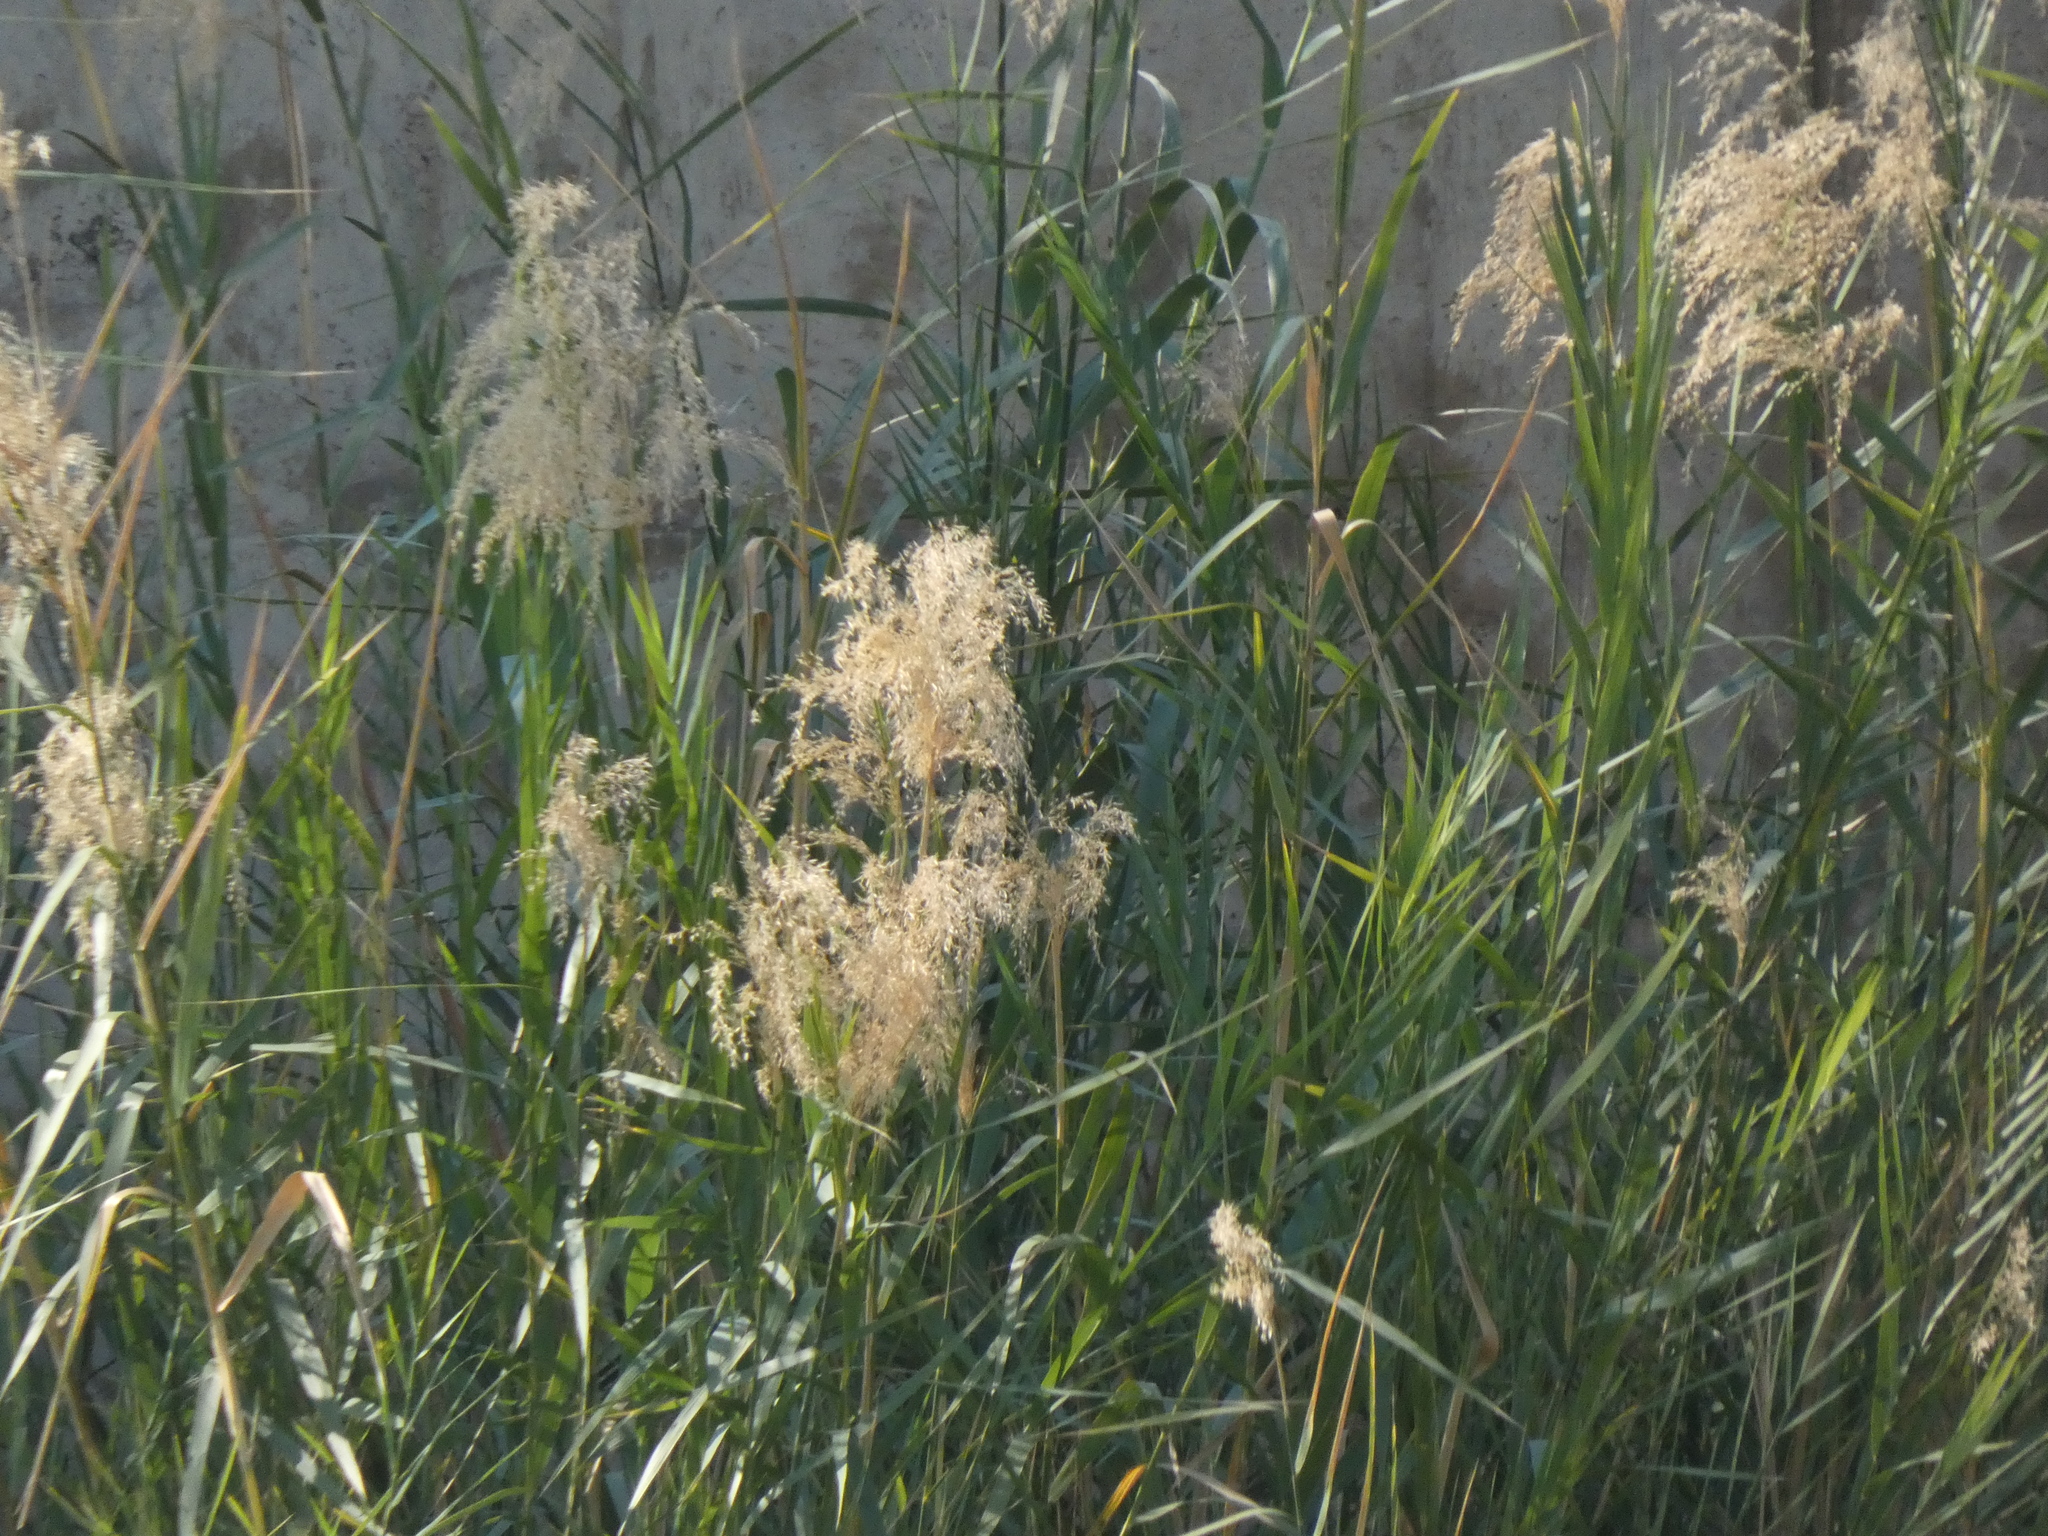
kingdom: Plantae
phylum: Tracheophyta
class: Liliopsida
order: Poales
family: Poaceae
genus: Phragmites
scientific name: Phragmites mauritianus
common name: Reed grass
